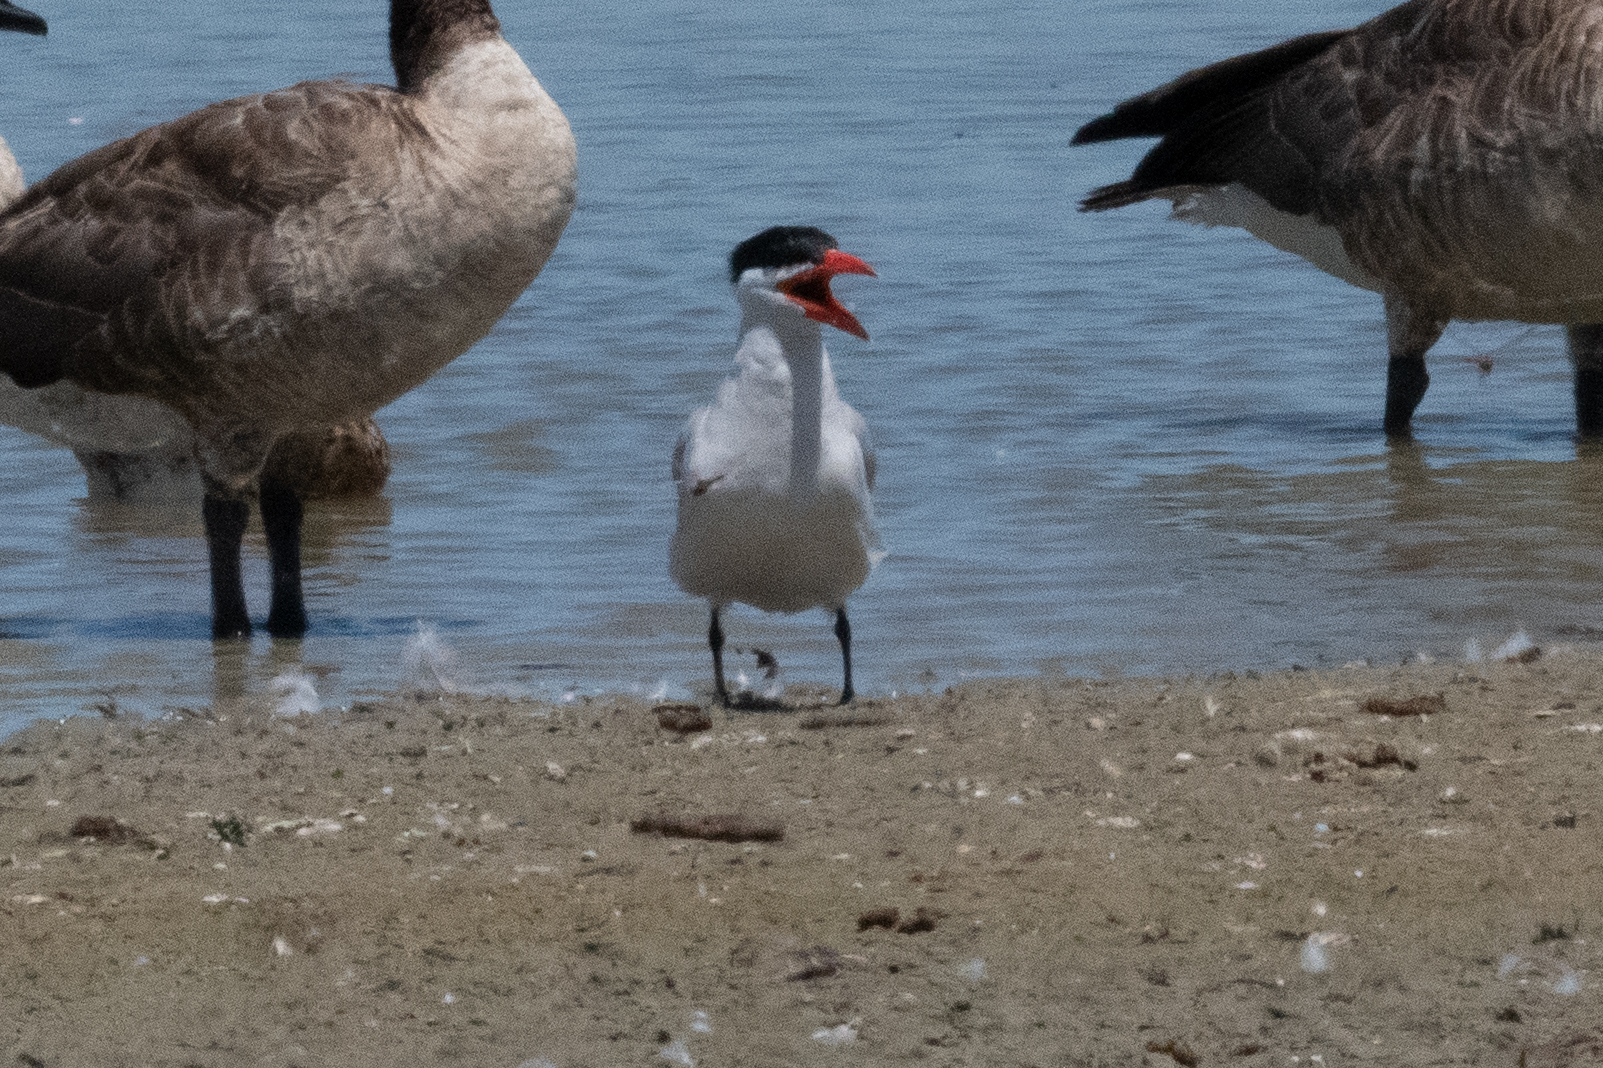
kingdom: Animalia
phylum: Chordata
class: Aves
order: Charadriiformes
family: Laridae
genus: Hydroprogne
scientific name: Hydroprogne caspia
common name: Caspian tern
